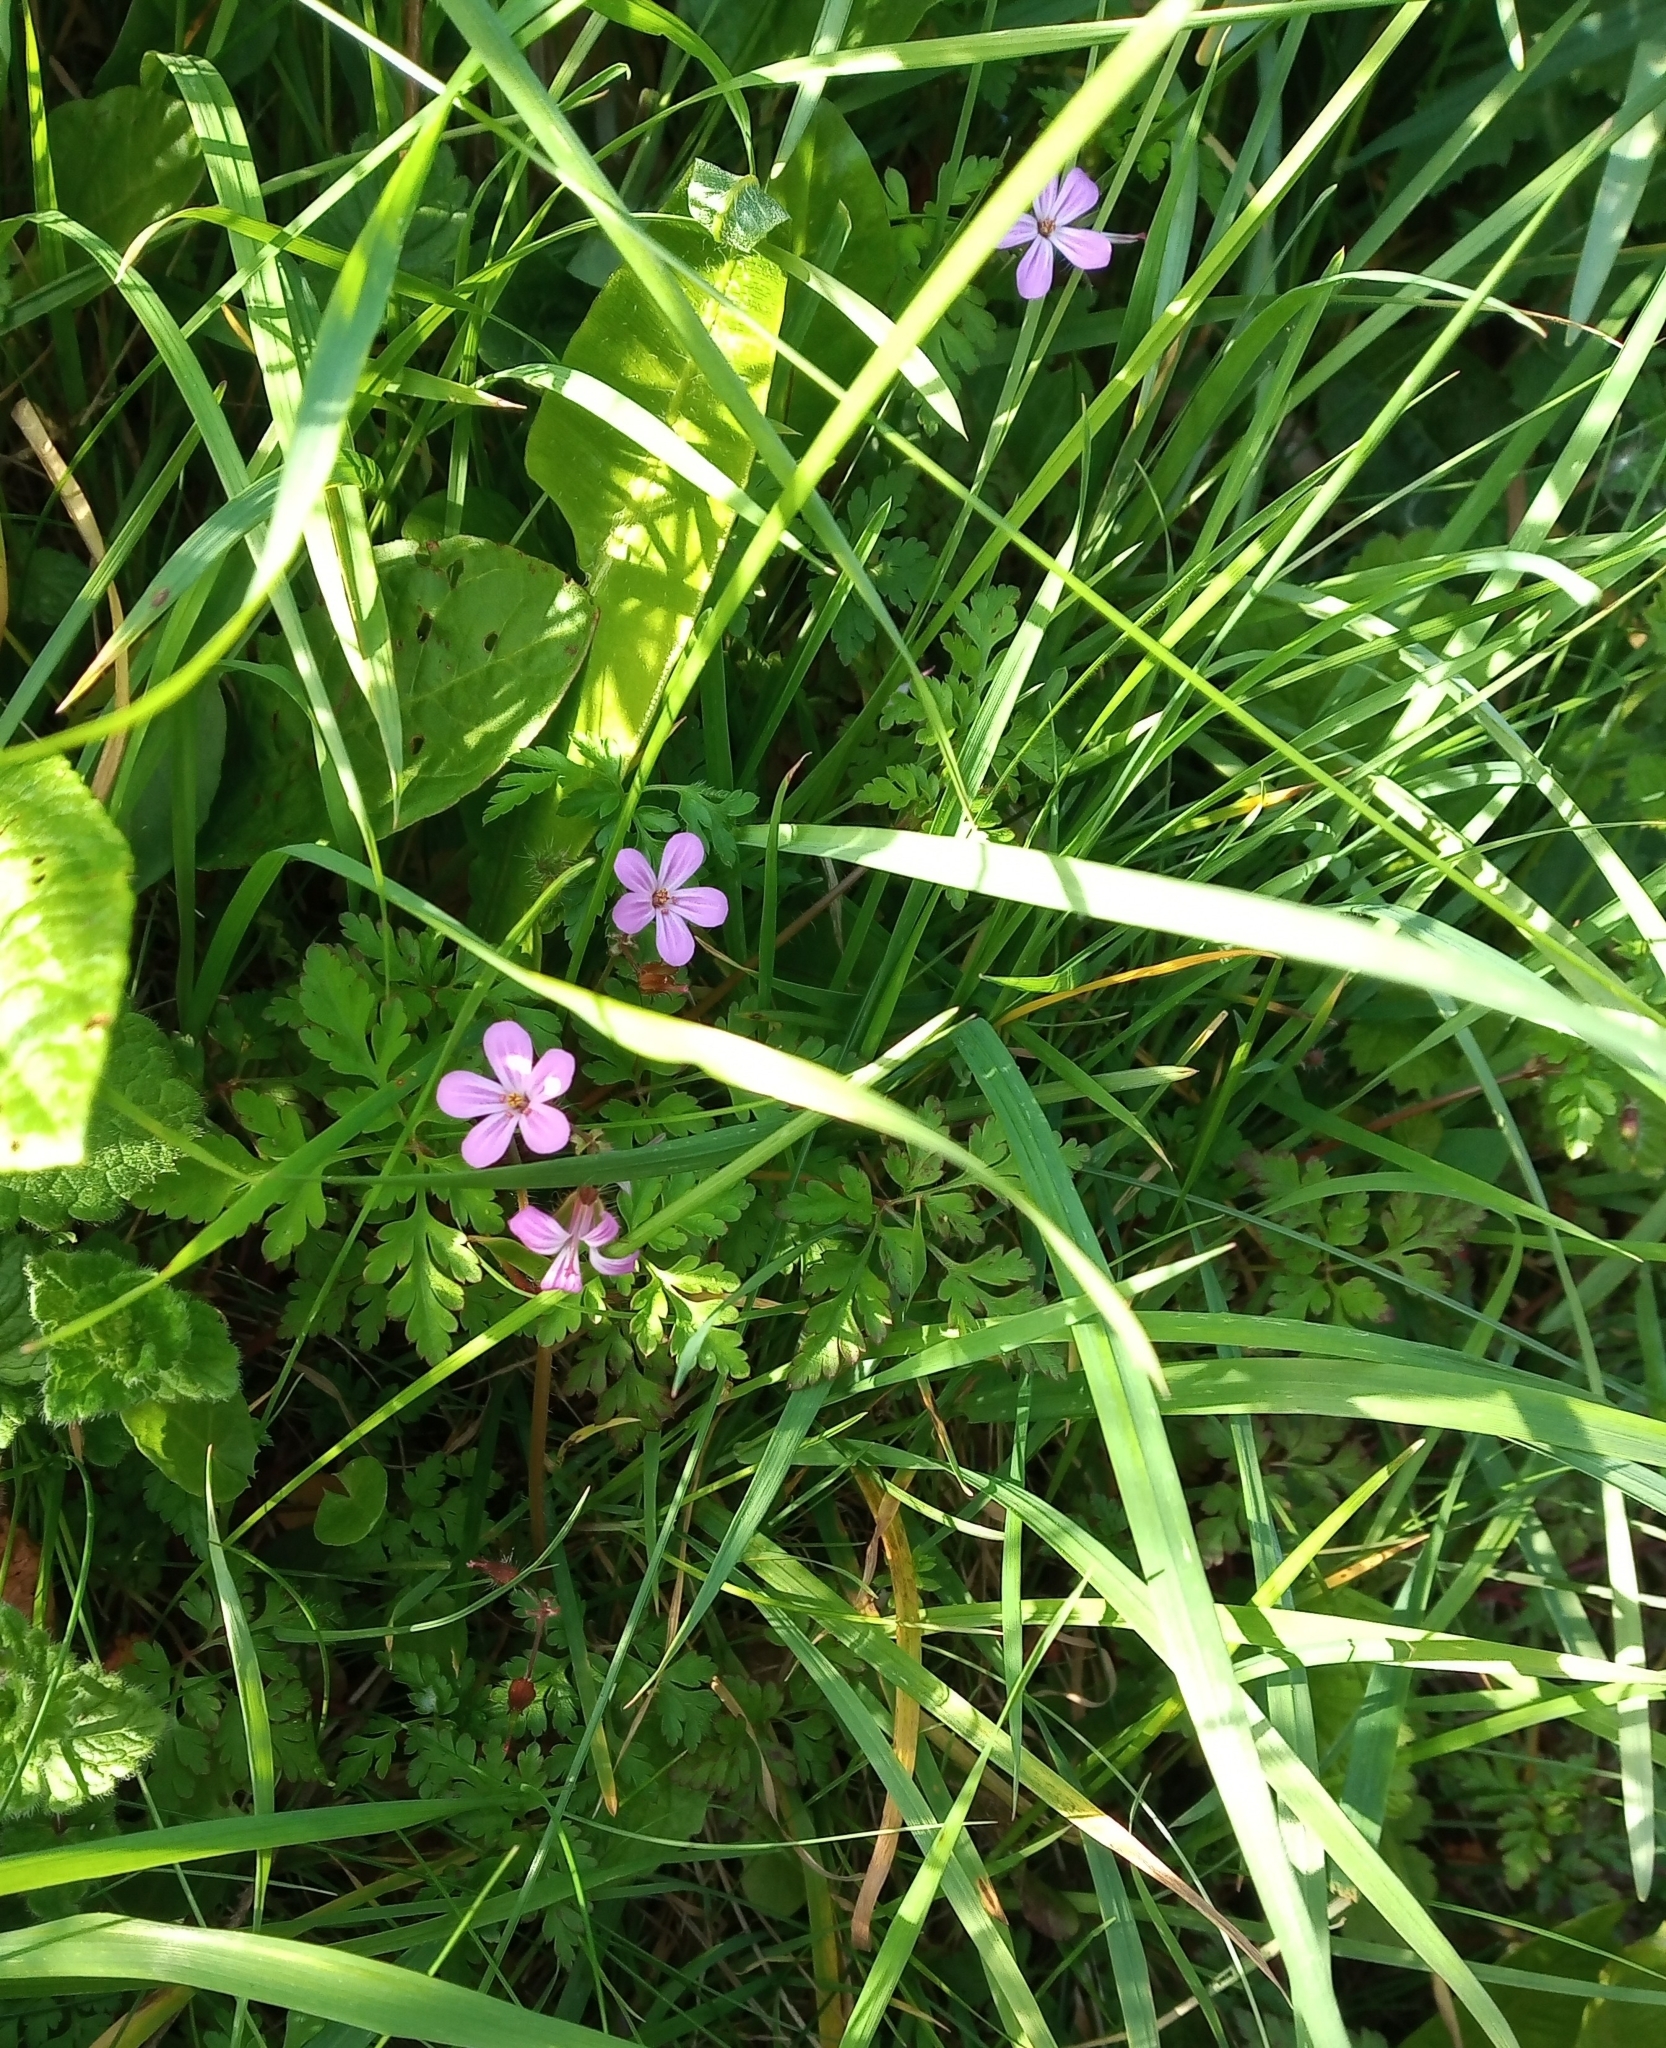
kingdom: Plantae
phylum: Tracheophyta
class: Magnoliopsida
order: Geraniales
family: Geraniaceae
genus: Geranium
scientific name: Geranium robertianum
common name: Herb-robert
